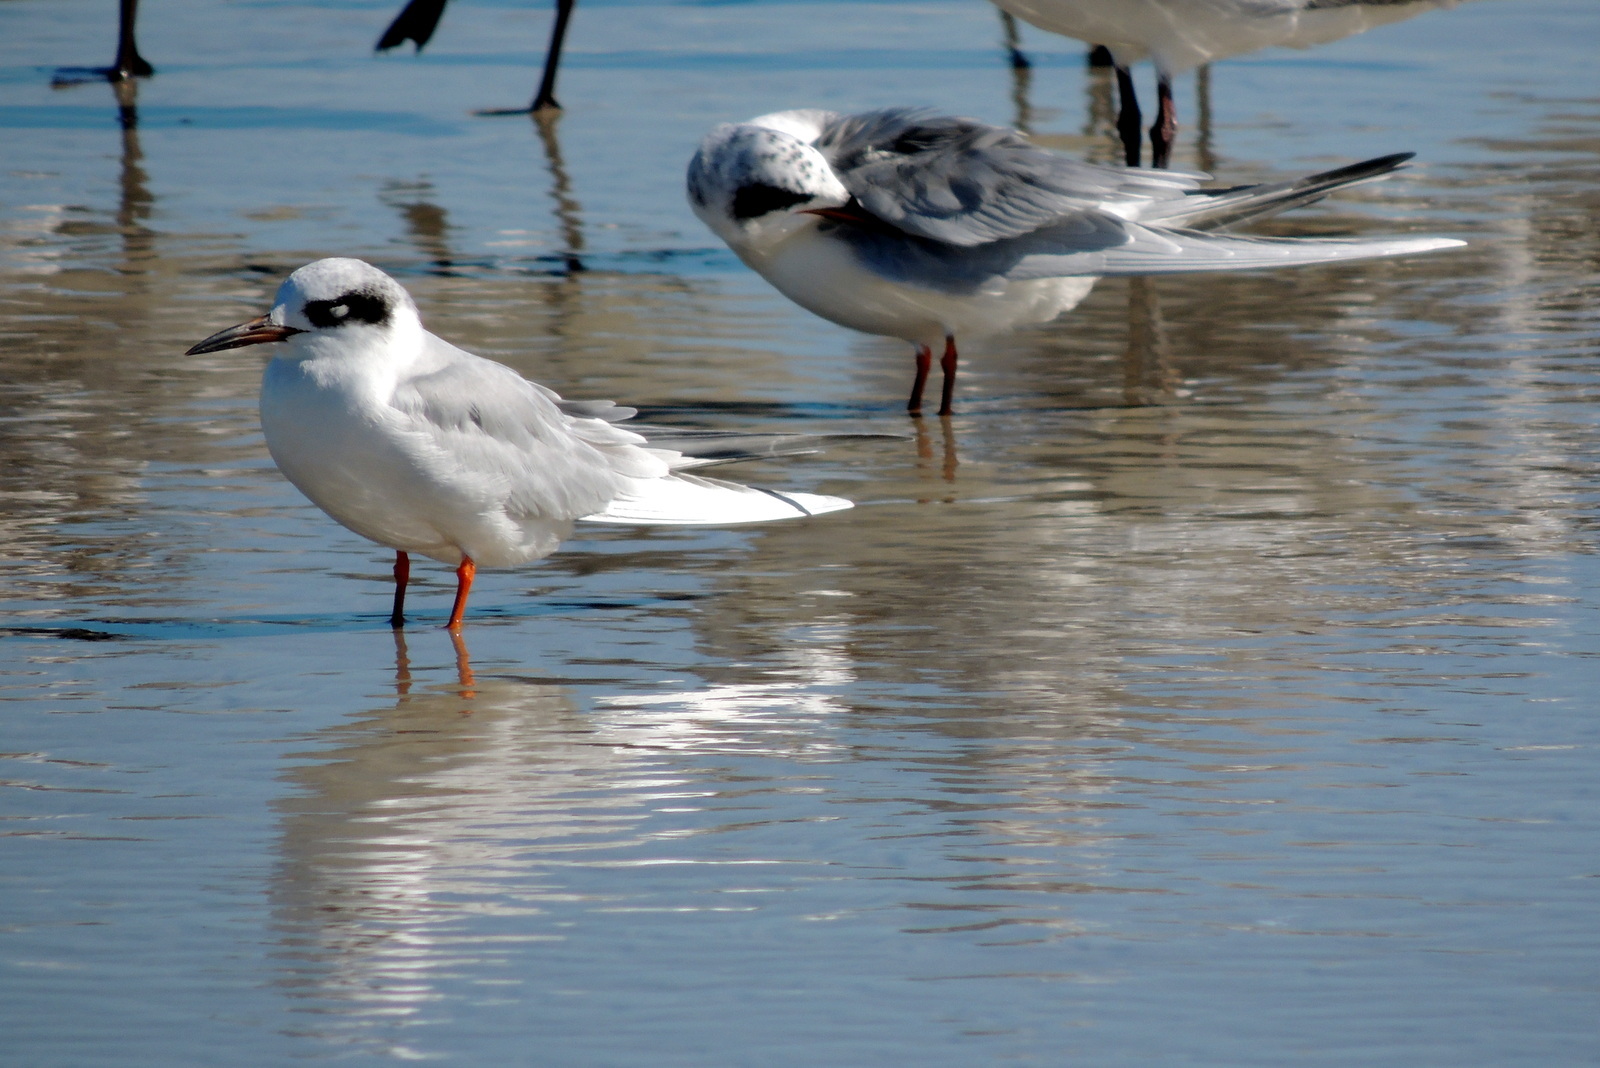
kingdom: Animalia
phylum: Chordata
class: Aves
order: Charadriiformes
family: Laridae
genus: Sterna
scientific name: Sterna forsteri
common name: Forster's tern
